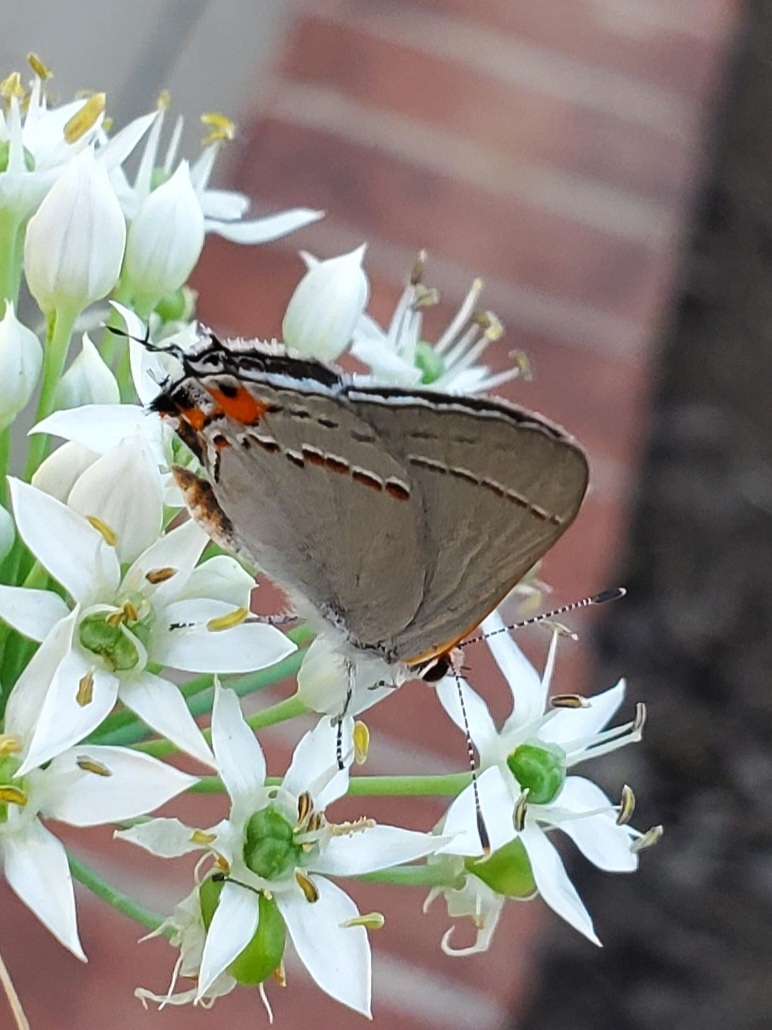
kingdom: Animalia
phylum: Arthropoda
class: Insecta
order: Lepidoptera
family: Lycaenidae
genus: Strymon
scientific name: Strymon melinus
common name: Gray hairstreak
